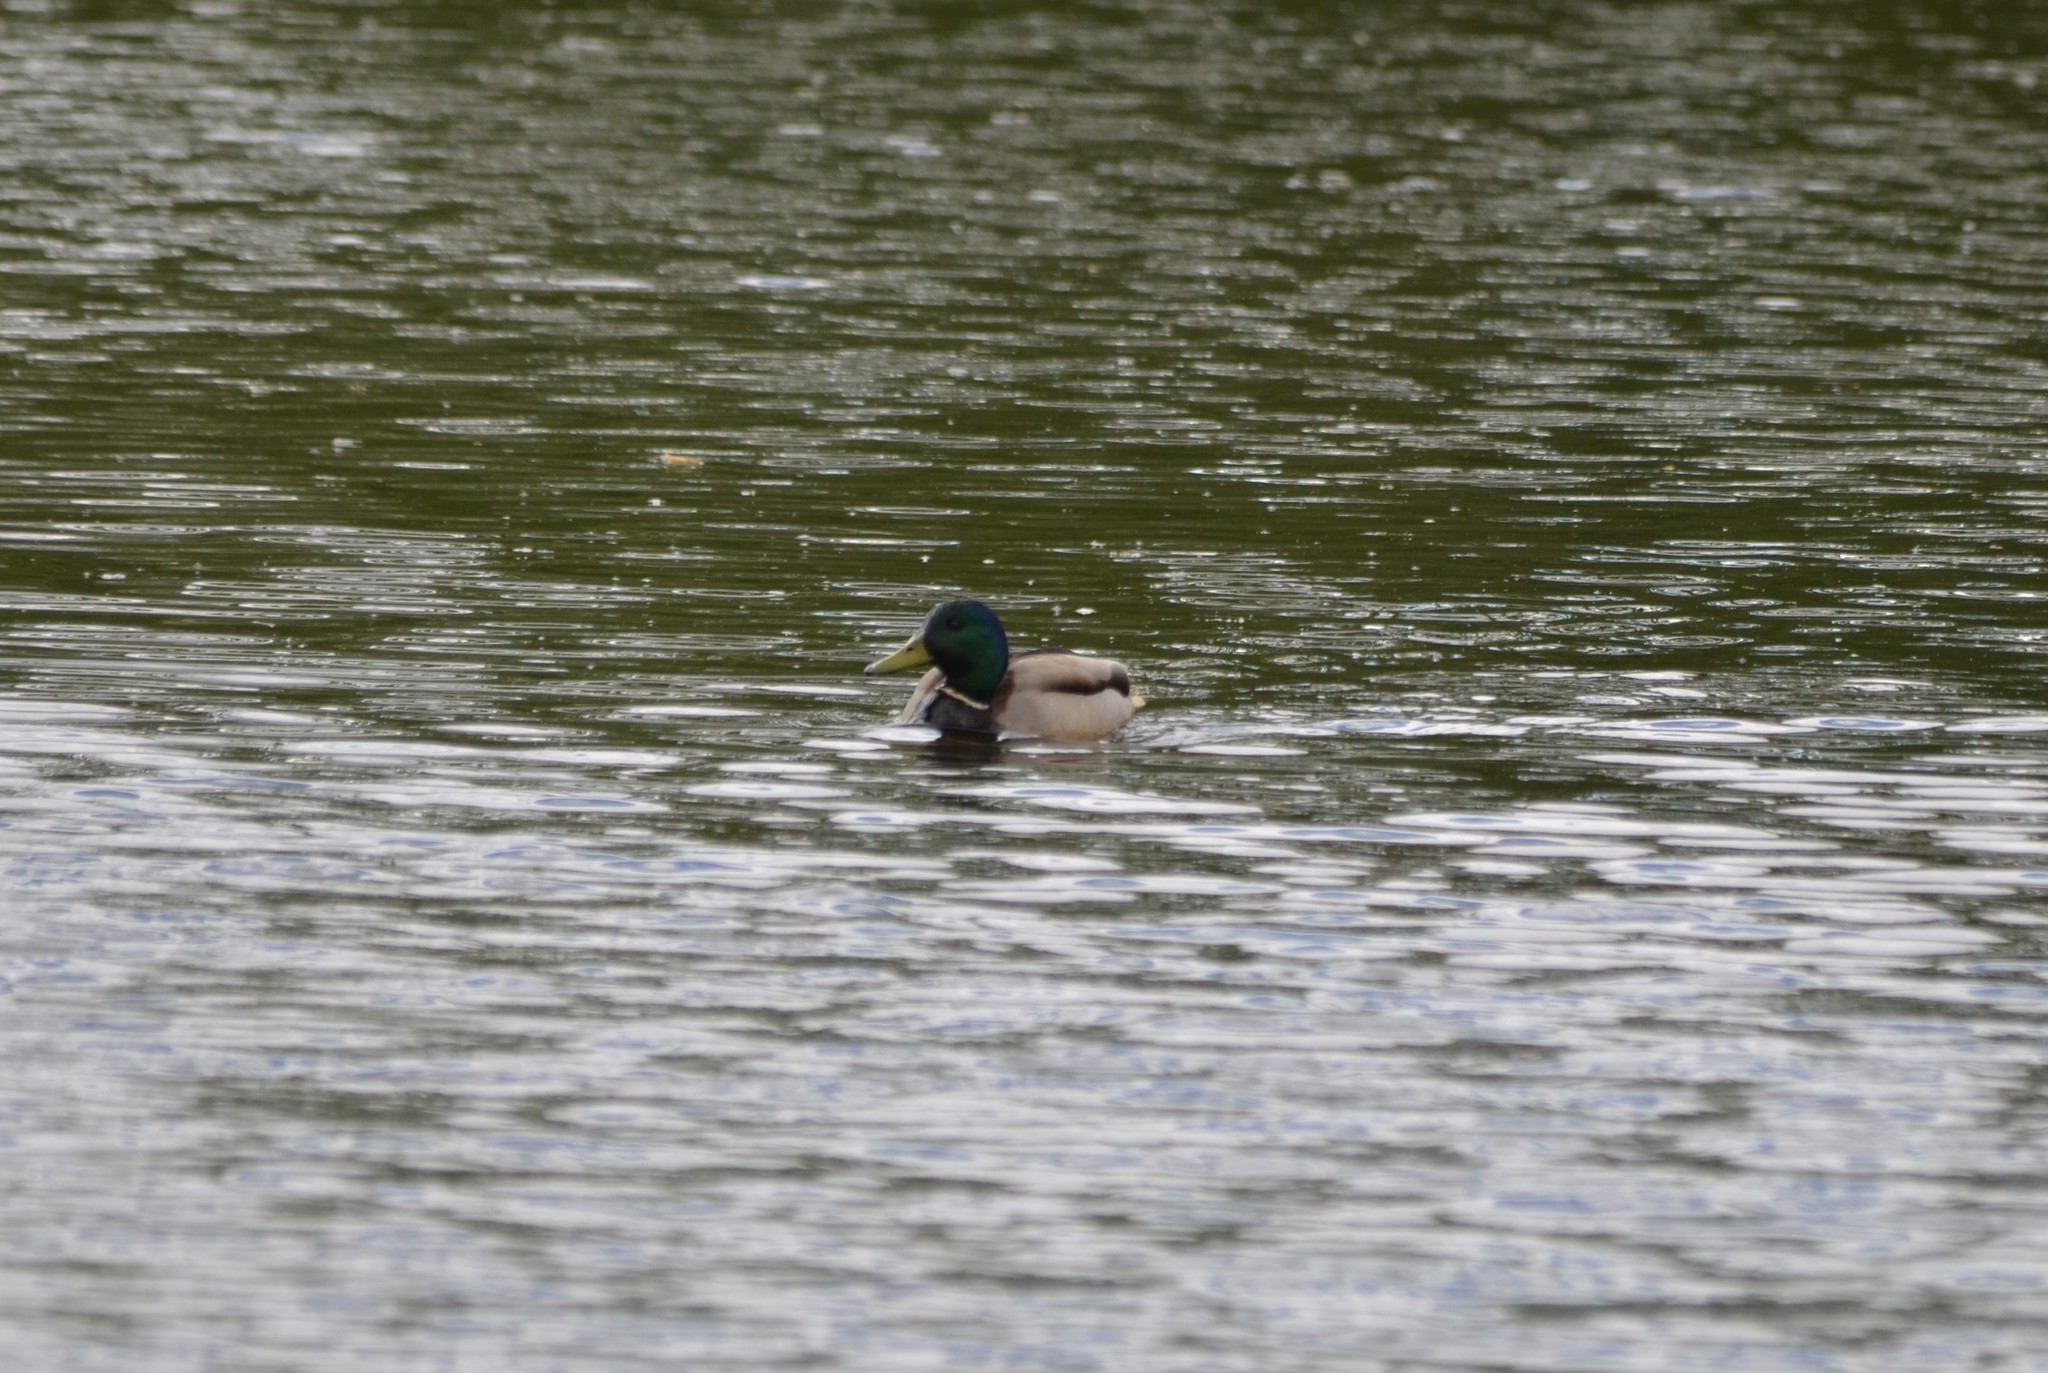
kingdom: Animalia
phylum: Chordata
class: Aves
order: Anseriformes
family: Anatidae
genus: Anas
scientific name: Anas platyrhynchos
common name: Mallard
